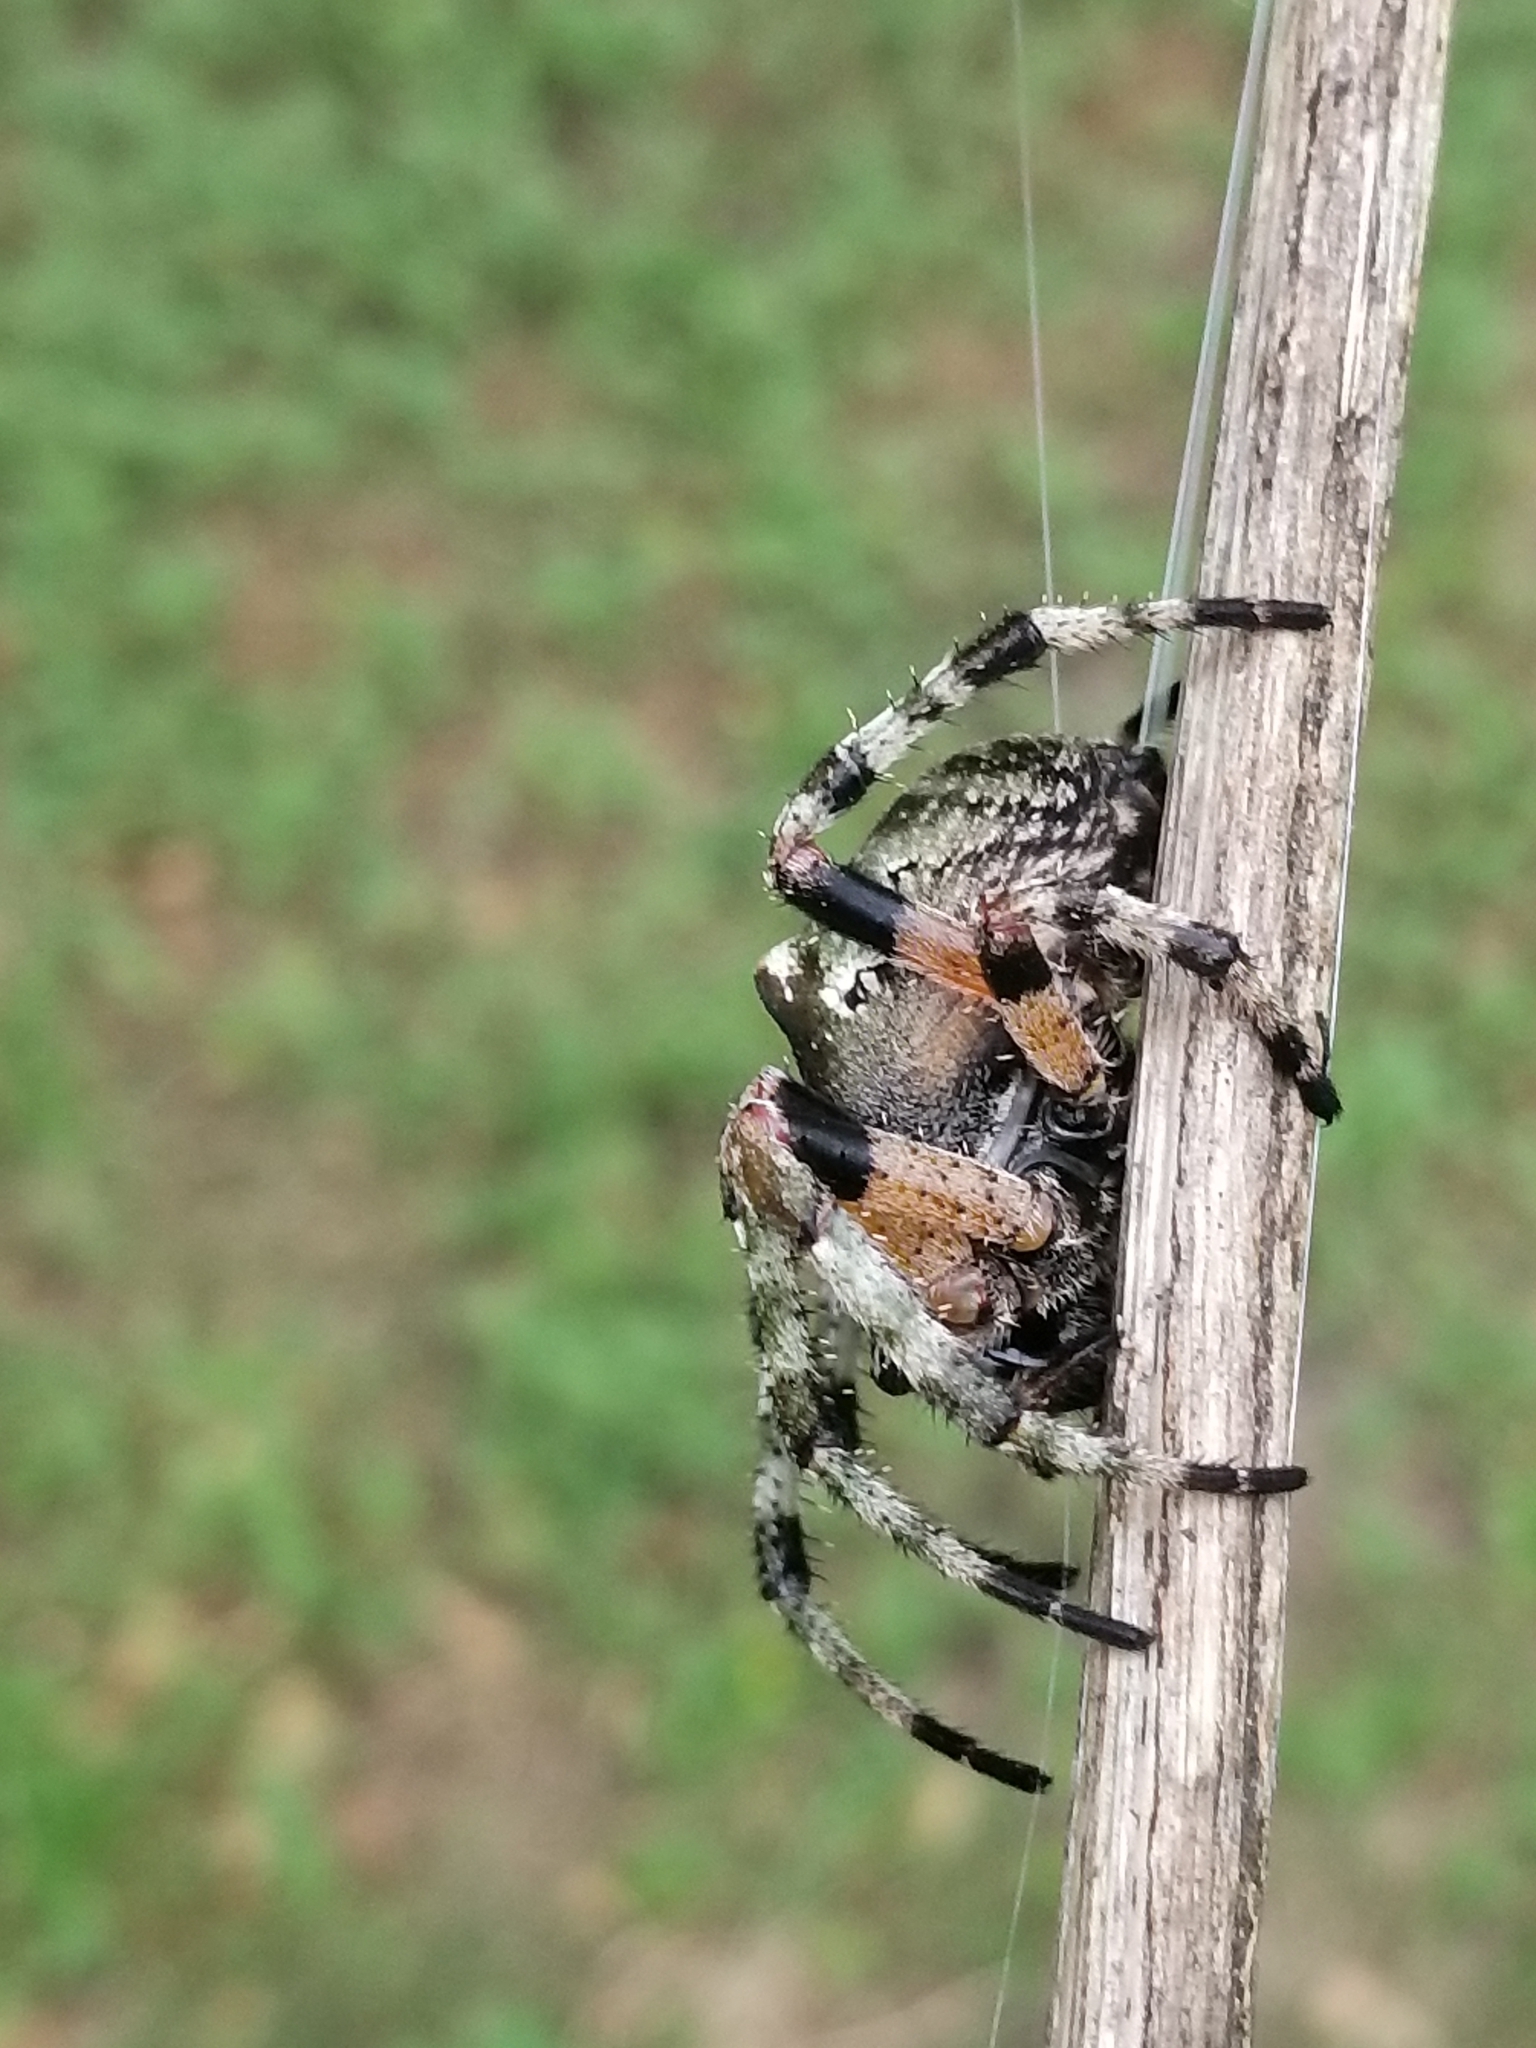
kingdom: Animalia
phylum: Arthropoda
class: Arachnida
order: Araneae
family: Araneidae
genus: Araneus
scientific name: Araneus bicentenarius
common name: Giant lichen orbweaver
